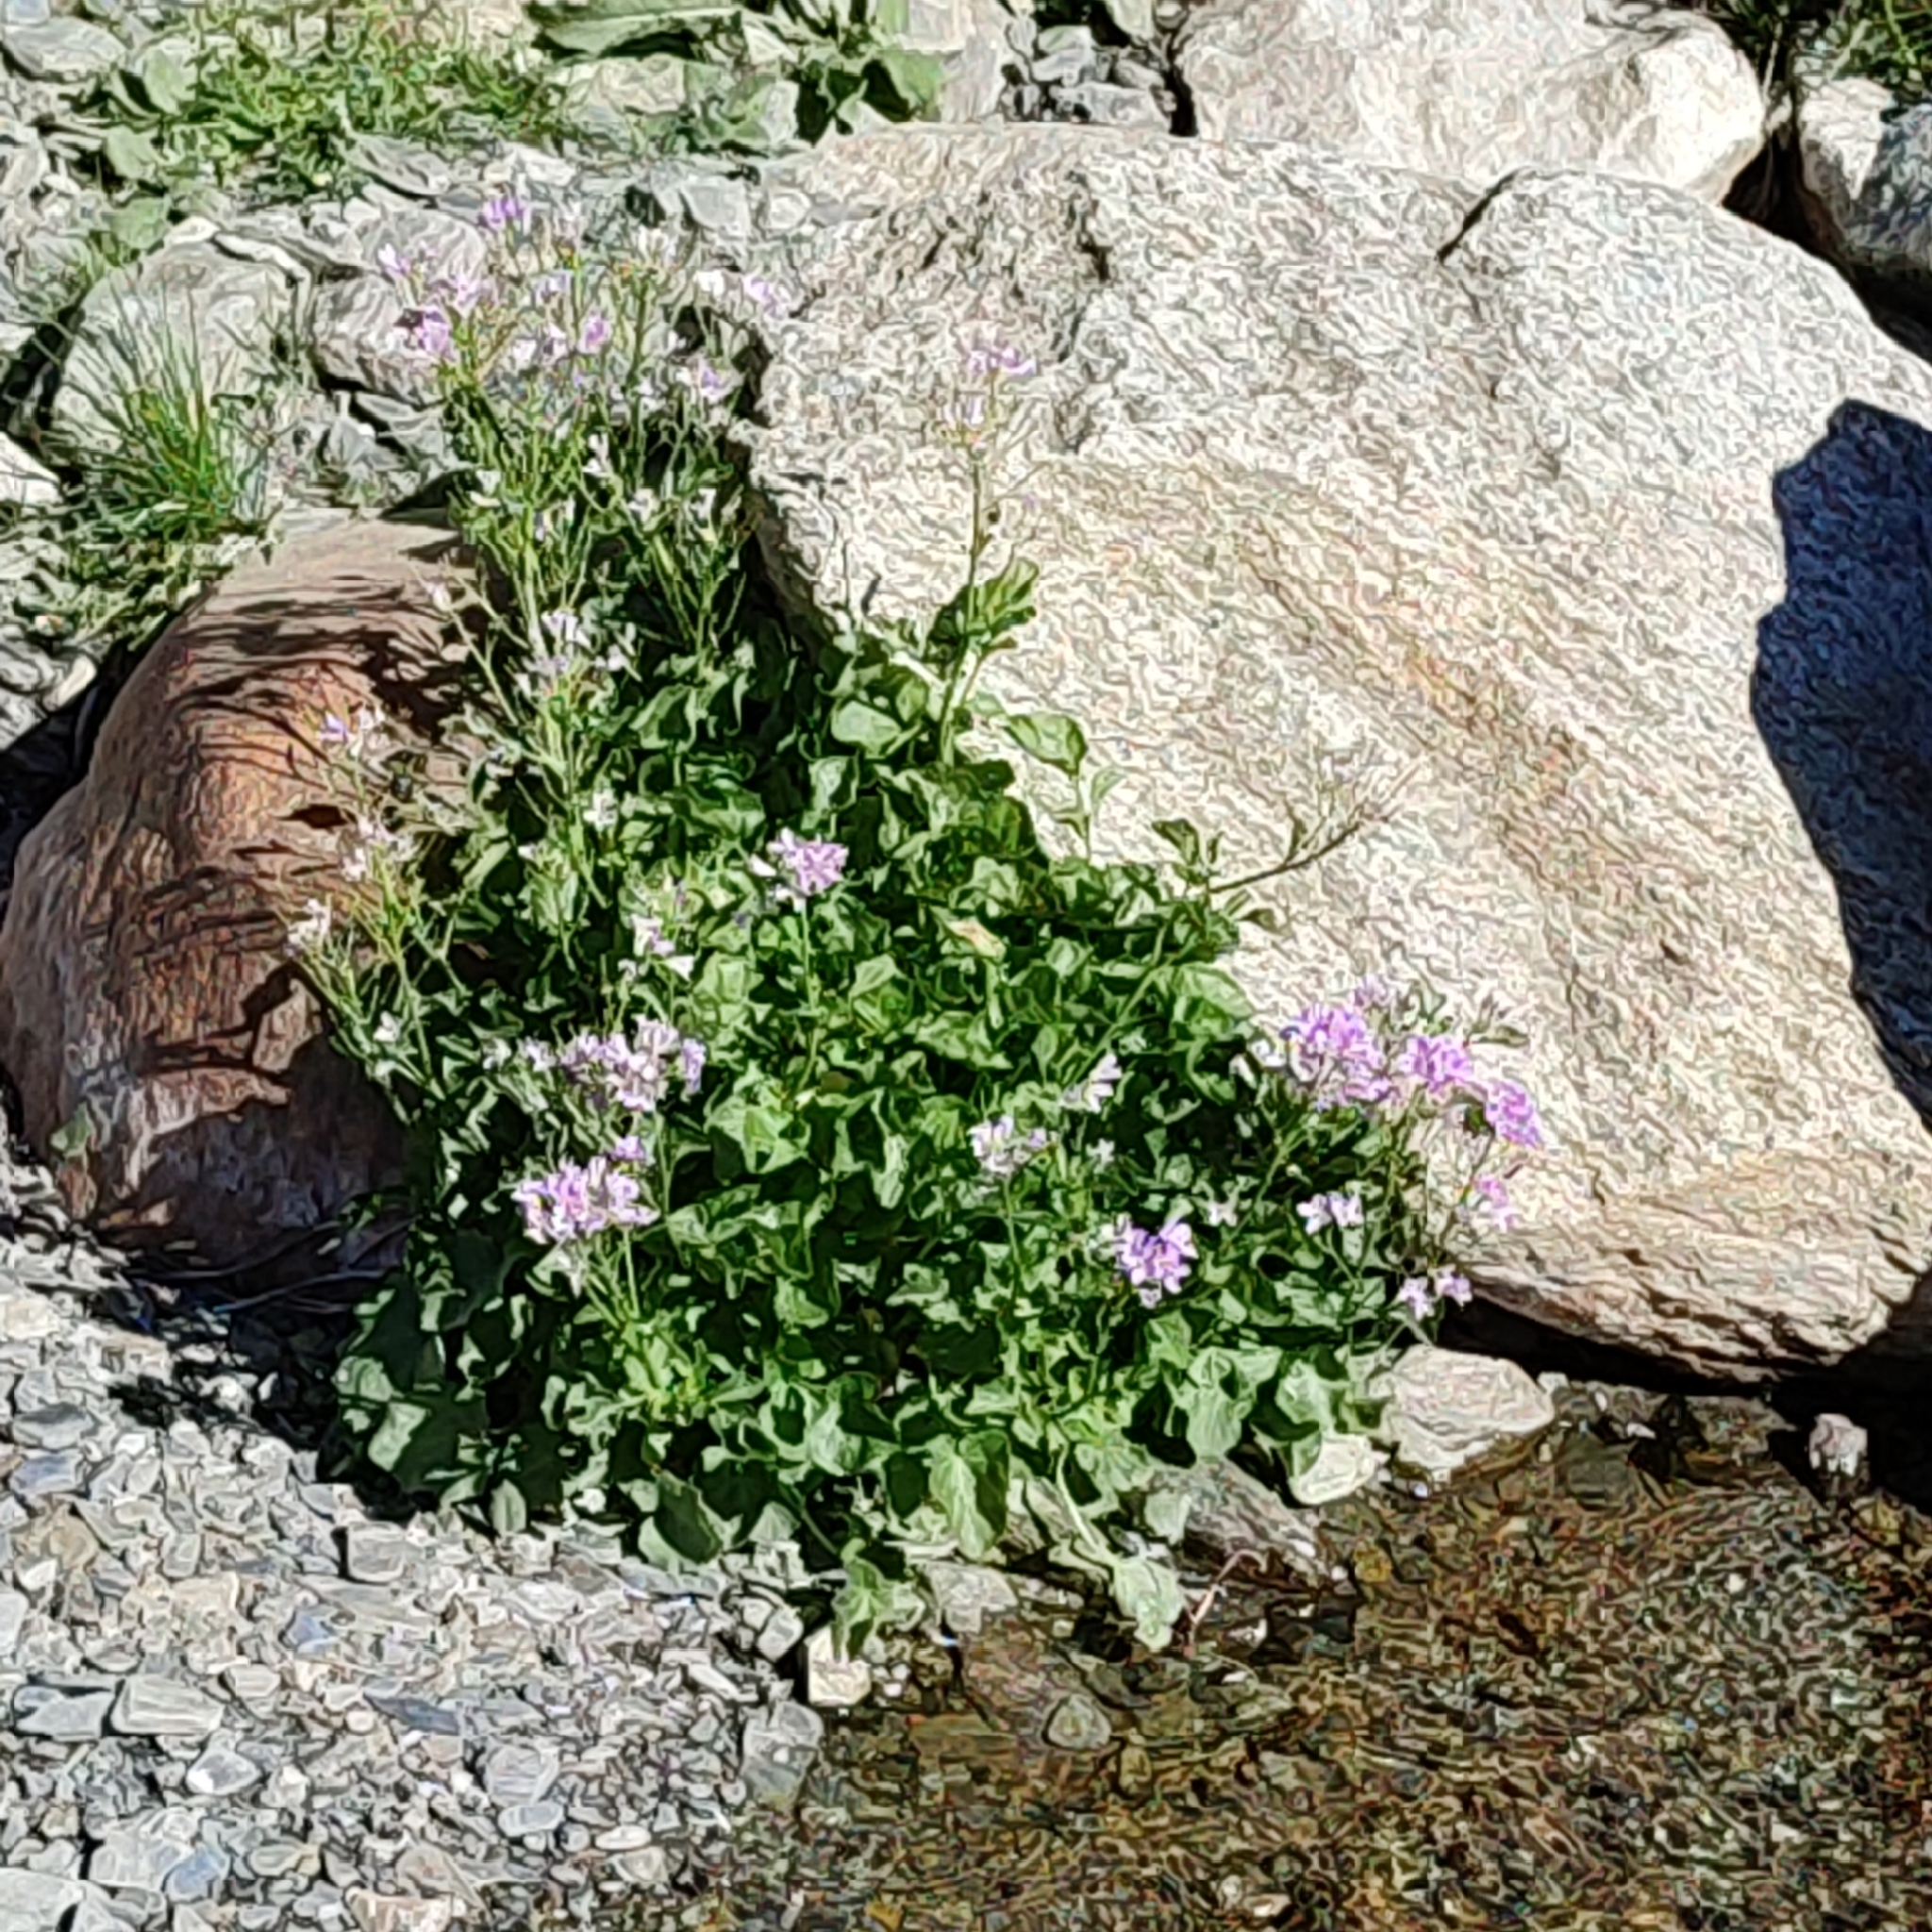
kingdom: Plantae
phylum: Tracheophyta
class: Magnoliopsida
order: Brassicales
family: Brassicaceae
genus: Cardamine
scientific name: Cardamine raphanifolia
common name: Greater cuckooflower
